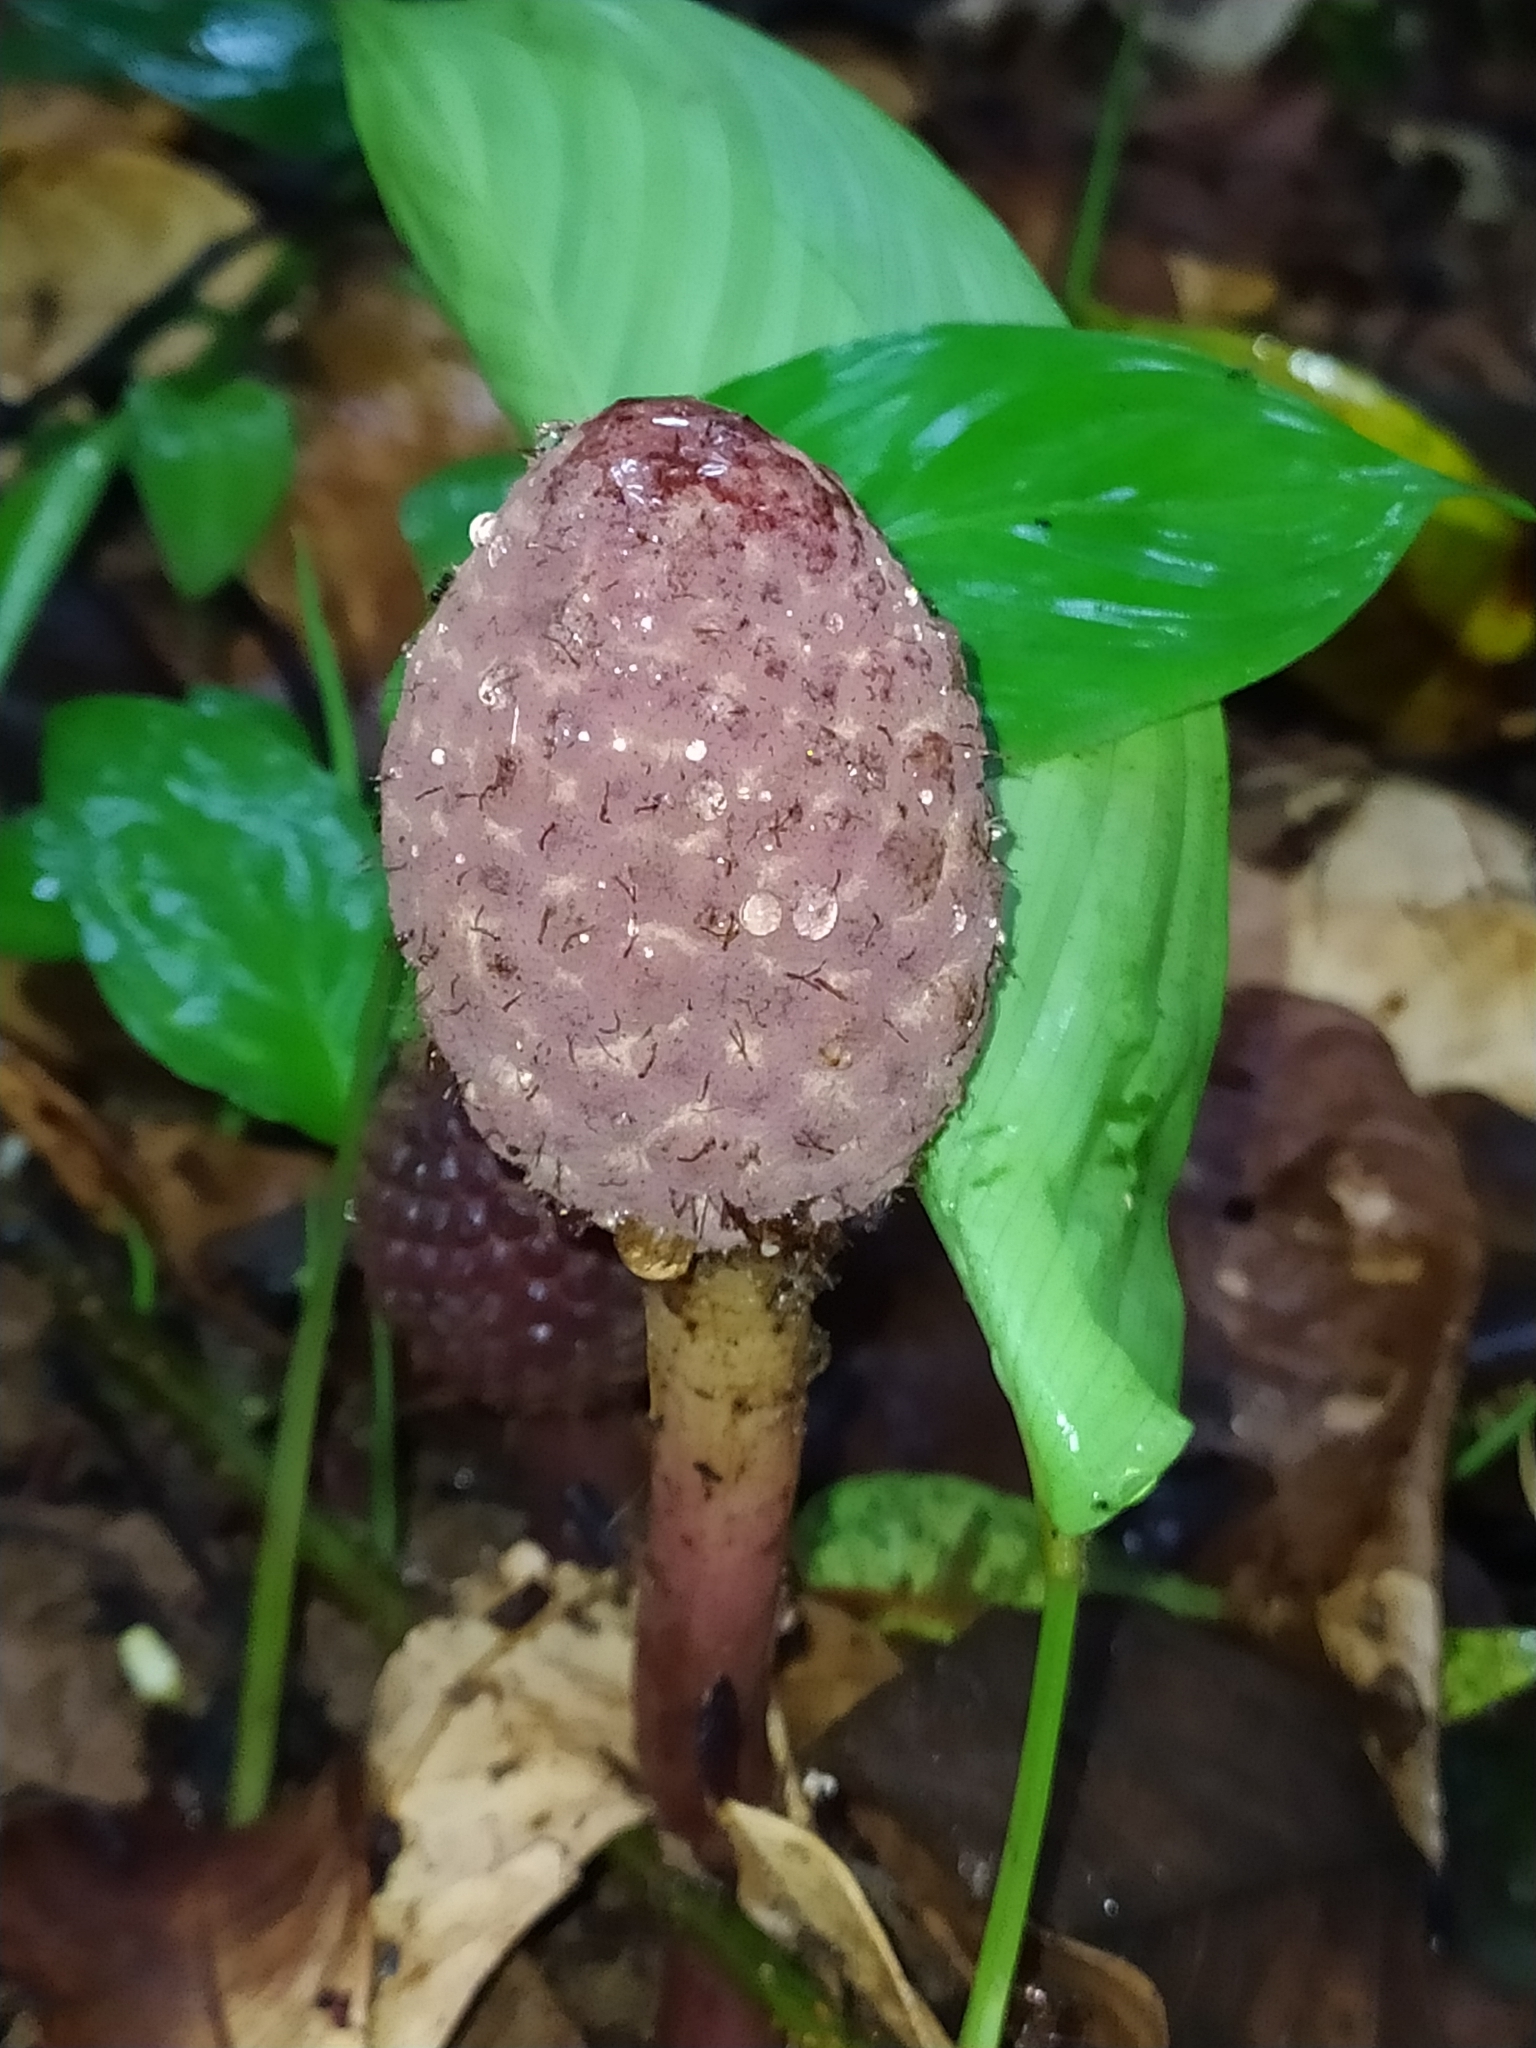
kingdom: Plantae
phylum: Tracheophyta
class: Magnoliopsida
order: Santalales
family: Balanophoraceae
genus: Helosis
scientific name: Helosis cayennensis
